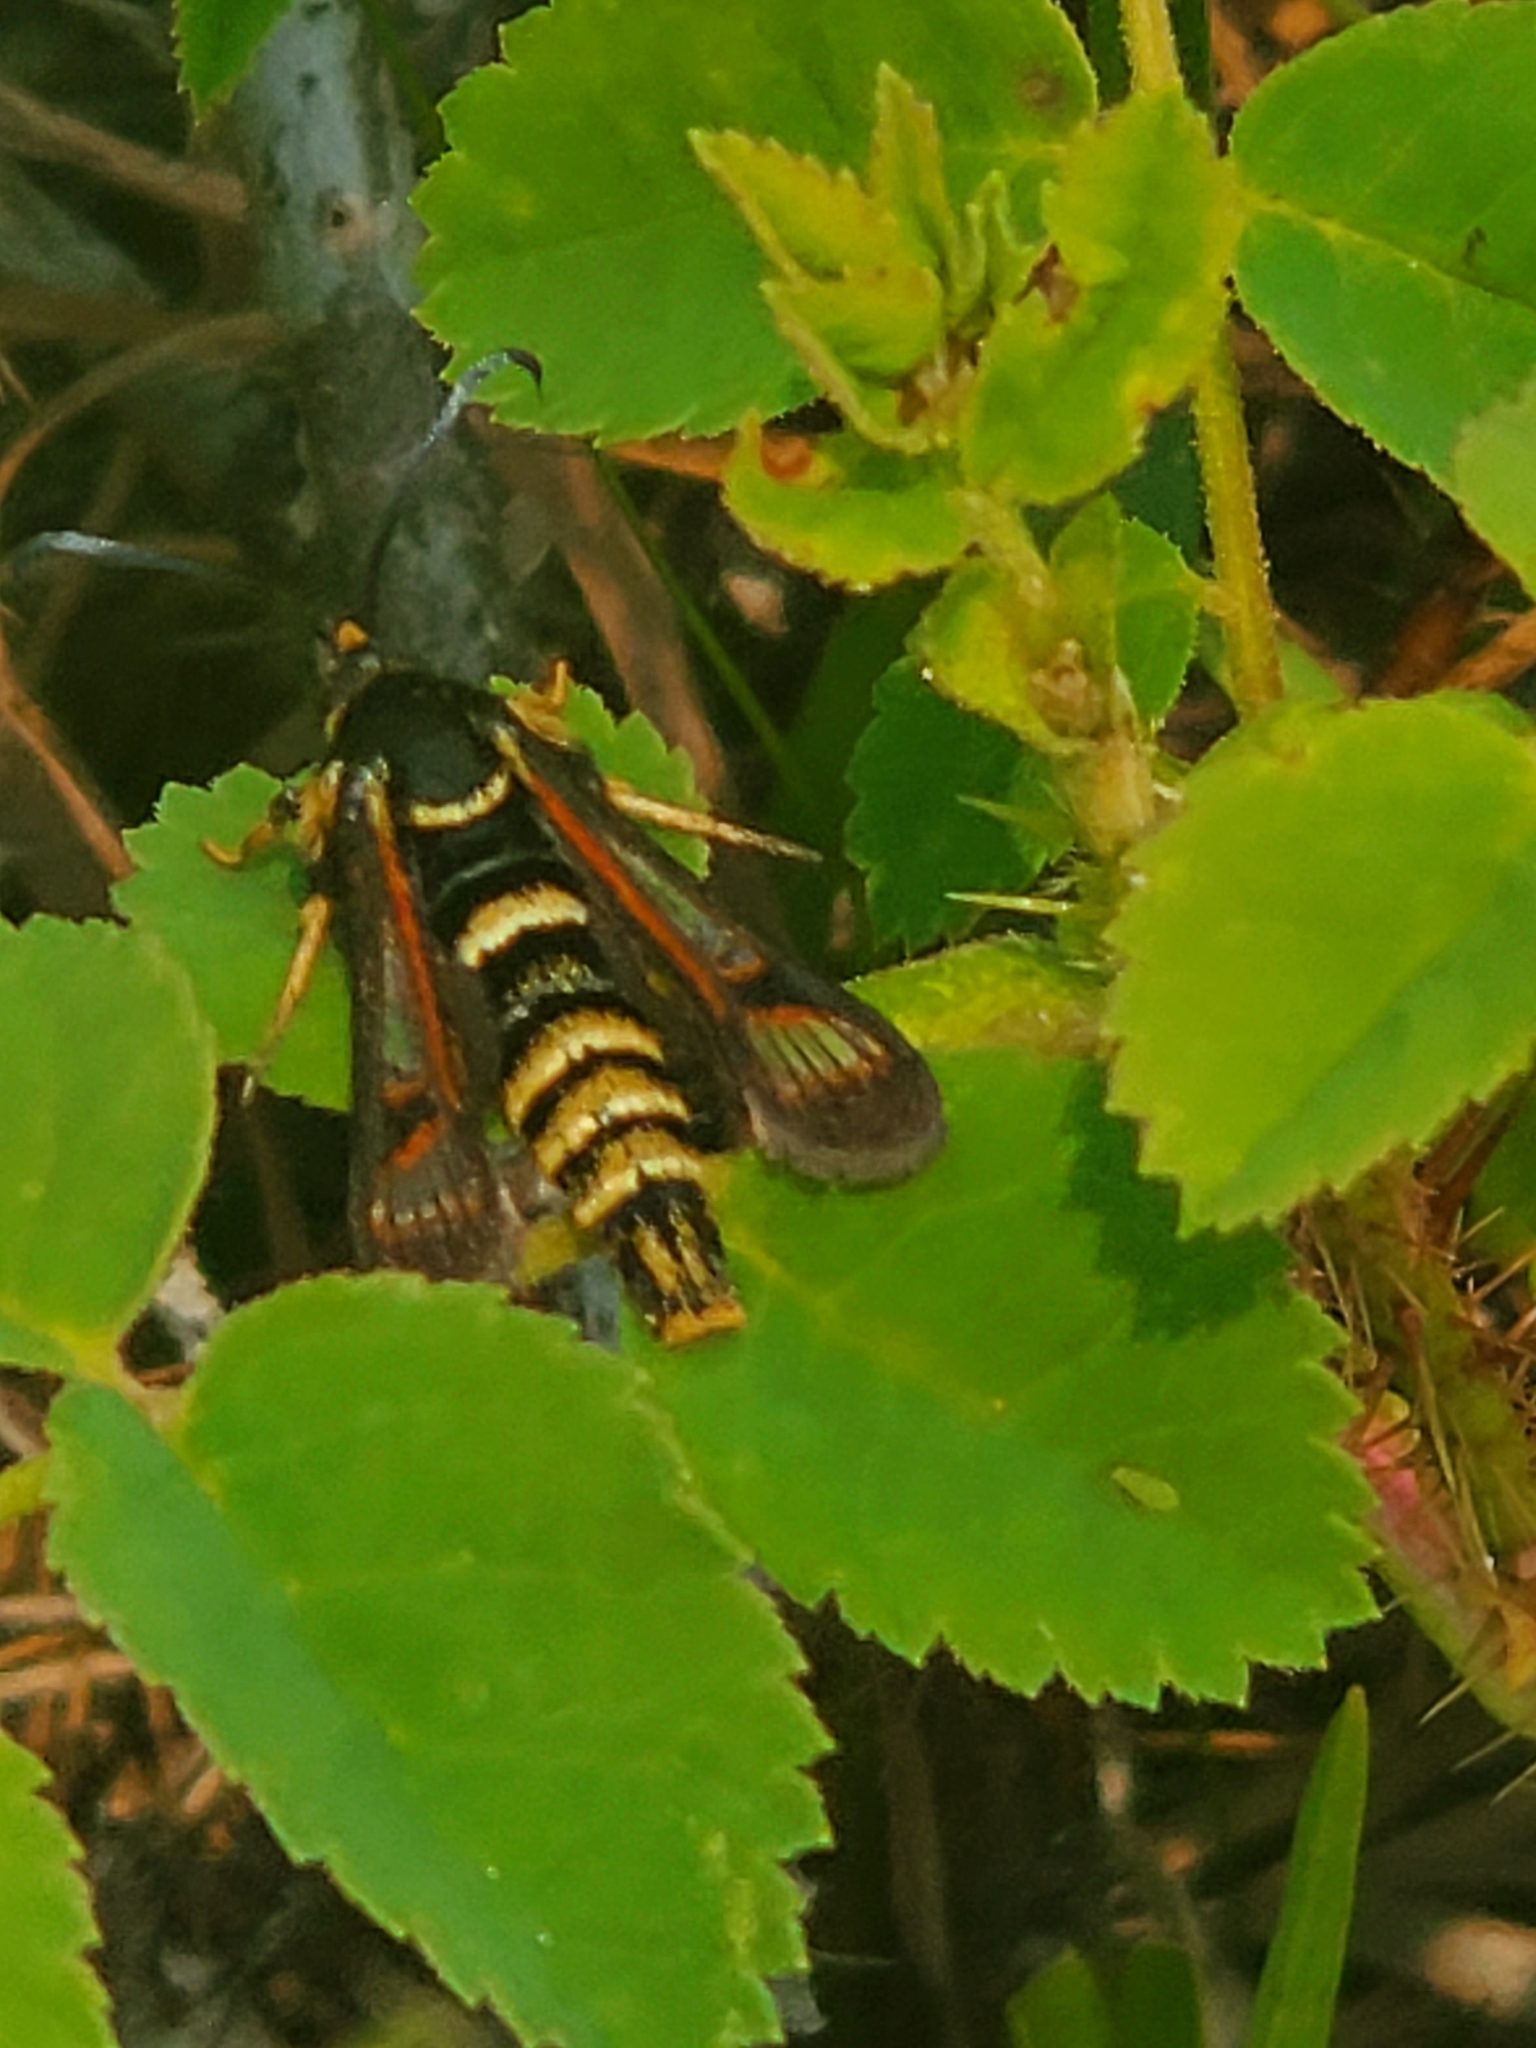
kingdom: Animalia
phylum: Arthropoda
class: Insecta
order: Lepidoptera
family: Sesiidae
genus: Albuna
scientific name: Albuna pyramidalis
